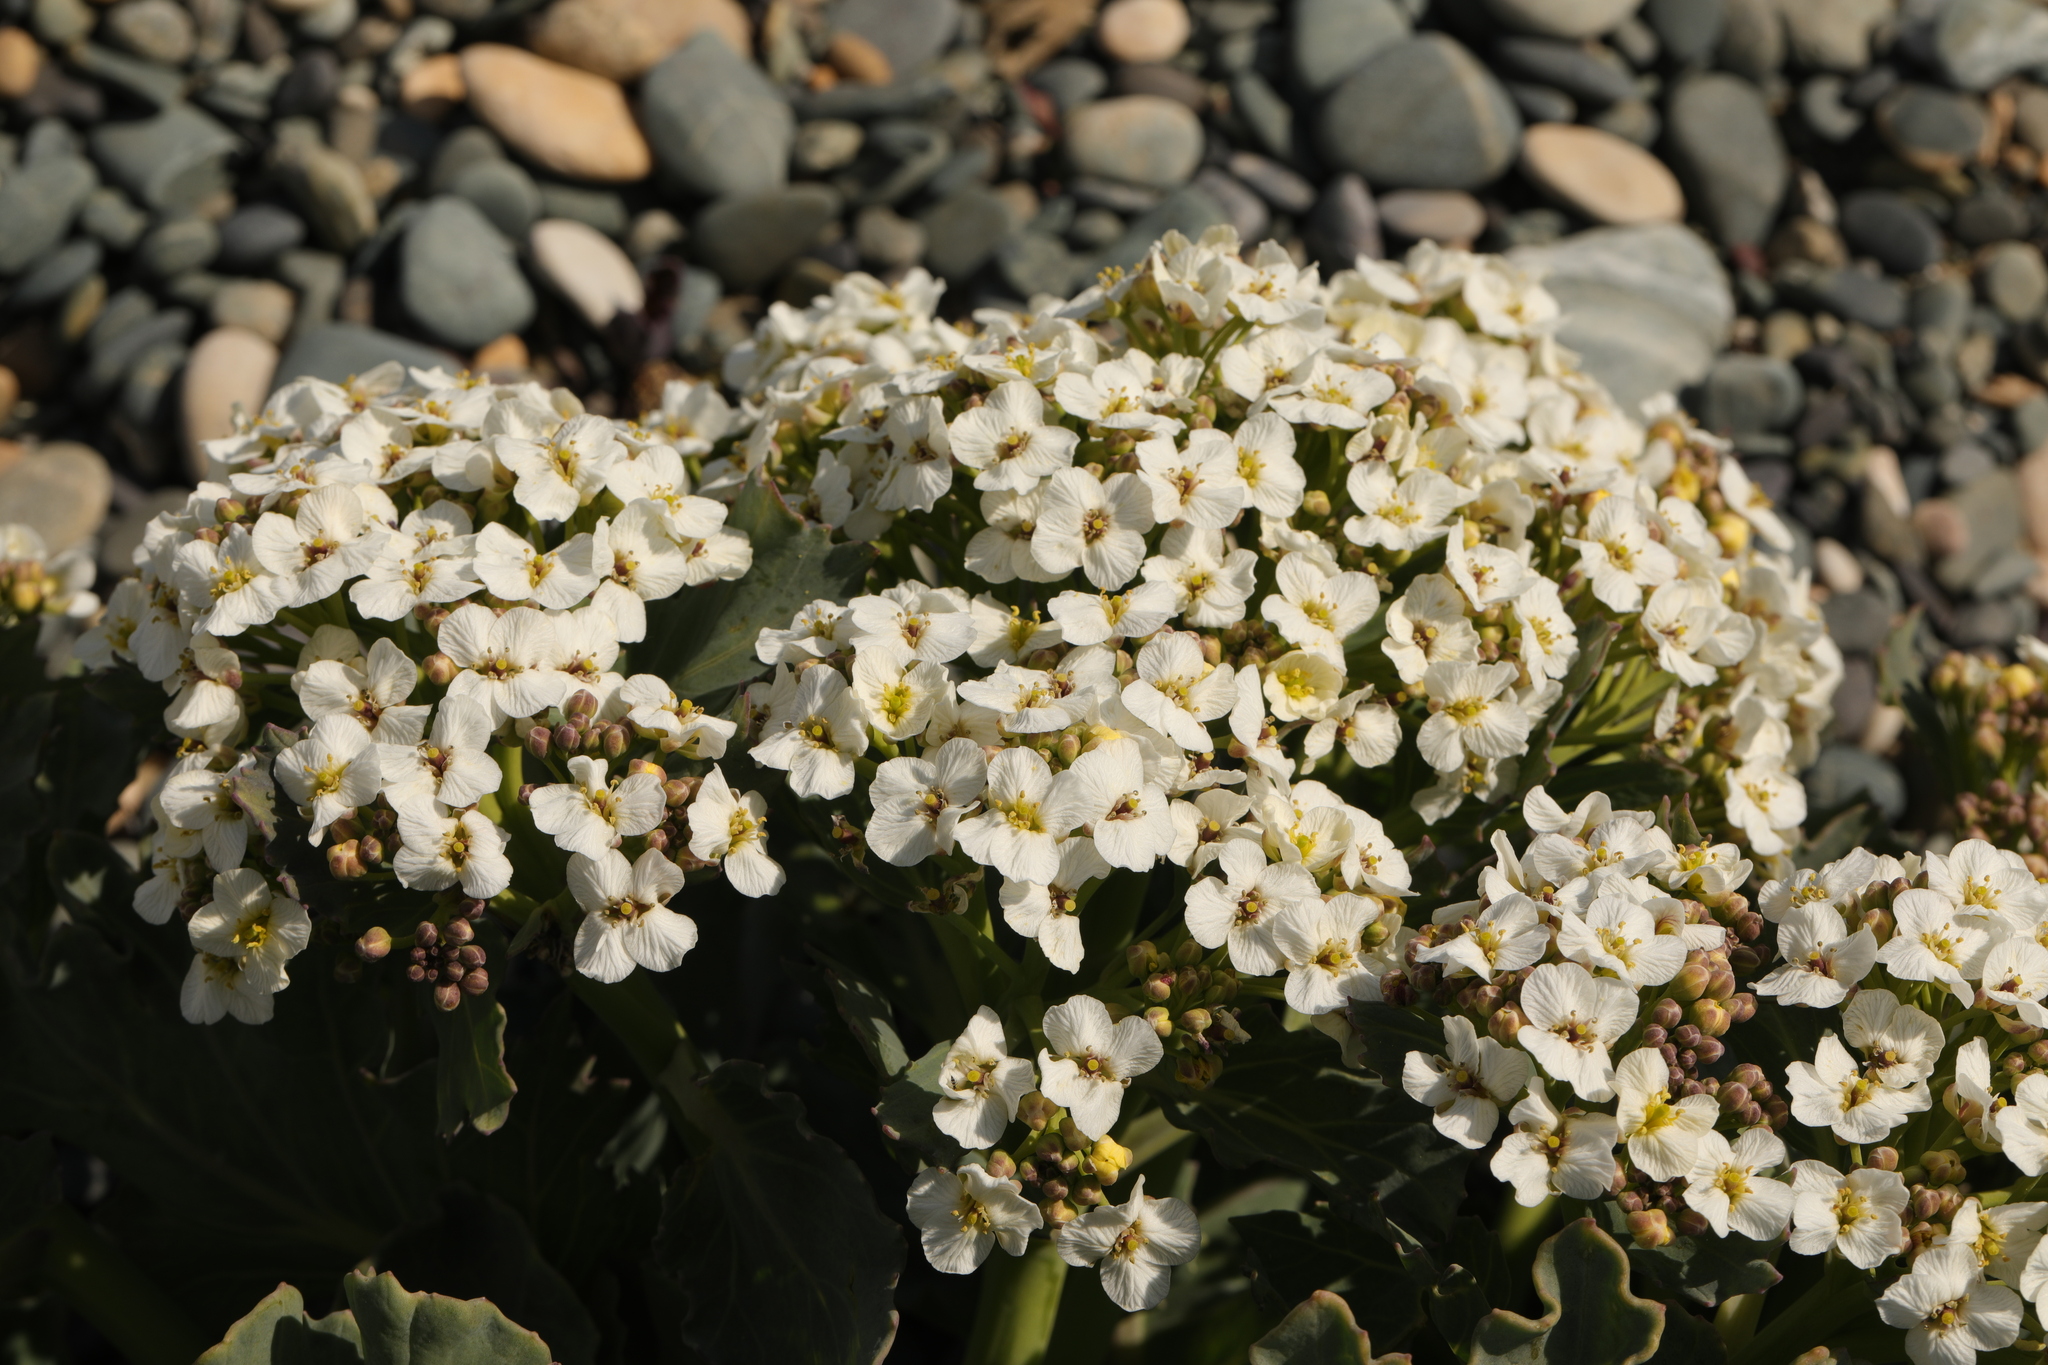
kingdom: Plantae
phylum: Tracheophyta
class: Magnoliopsida
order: Brassicales
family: Brassicaceae
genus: Crambe
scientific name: Crambe maritima
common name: Sea-kale
